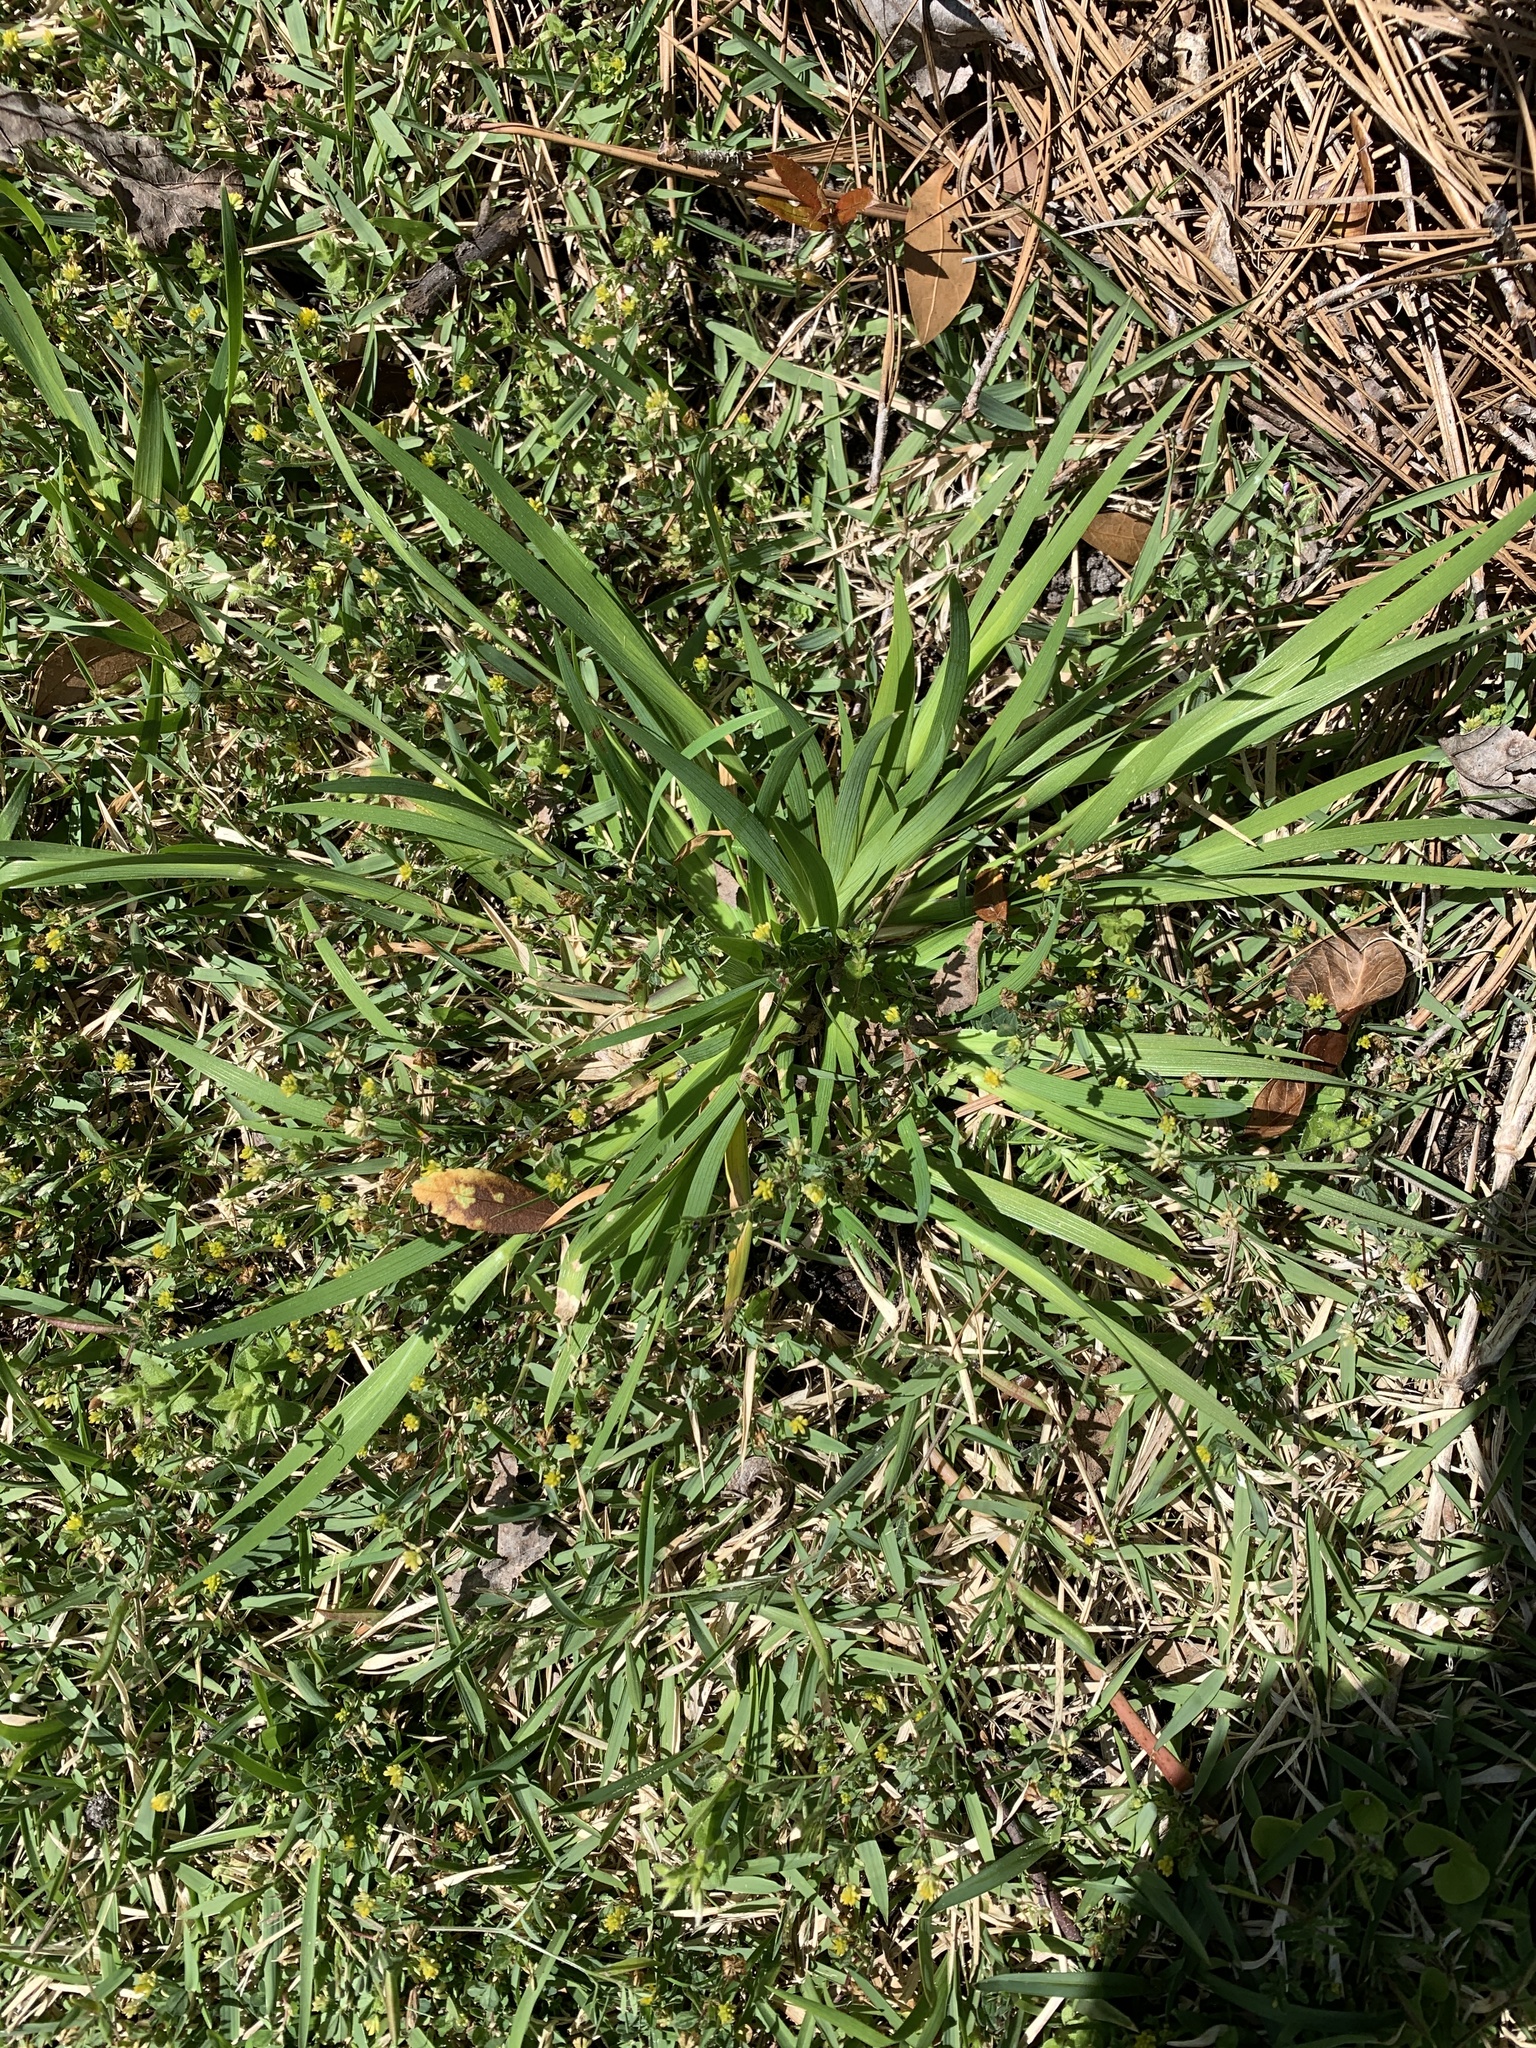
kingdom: Plantae
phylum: Tracheophyta
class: Liliopsida
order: Asparagales
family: Iridaceae
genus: Sisyrinchium
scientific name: Sisyrinchium micranthum
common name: Bermuda pigroot
